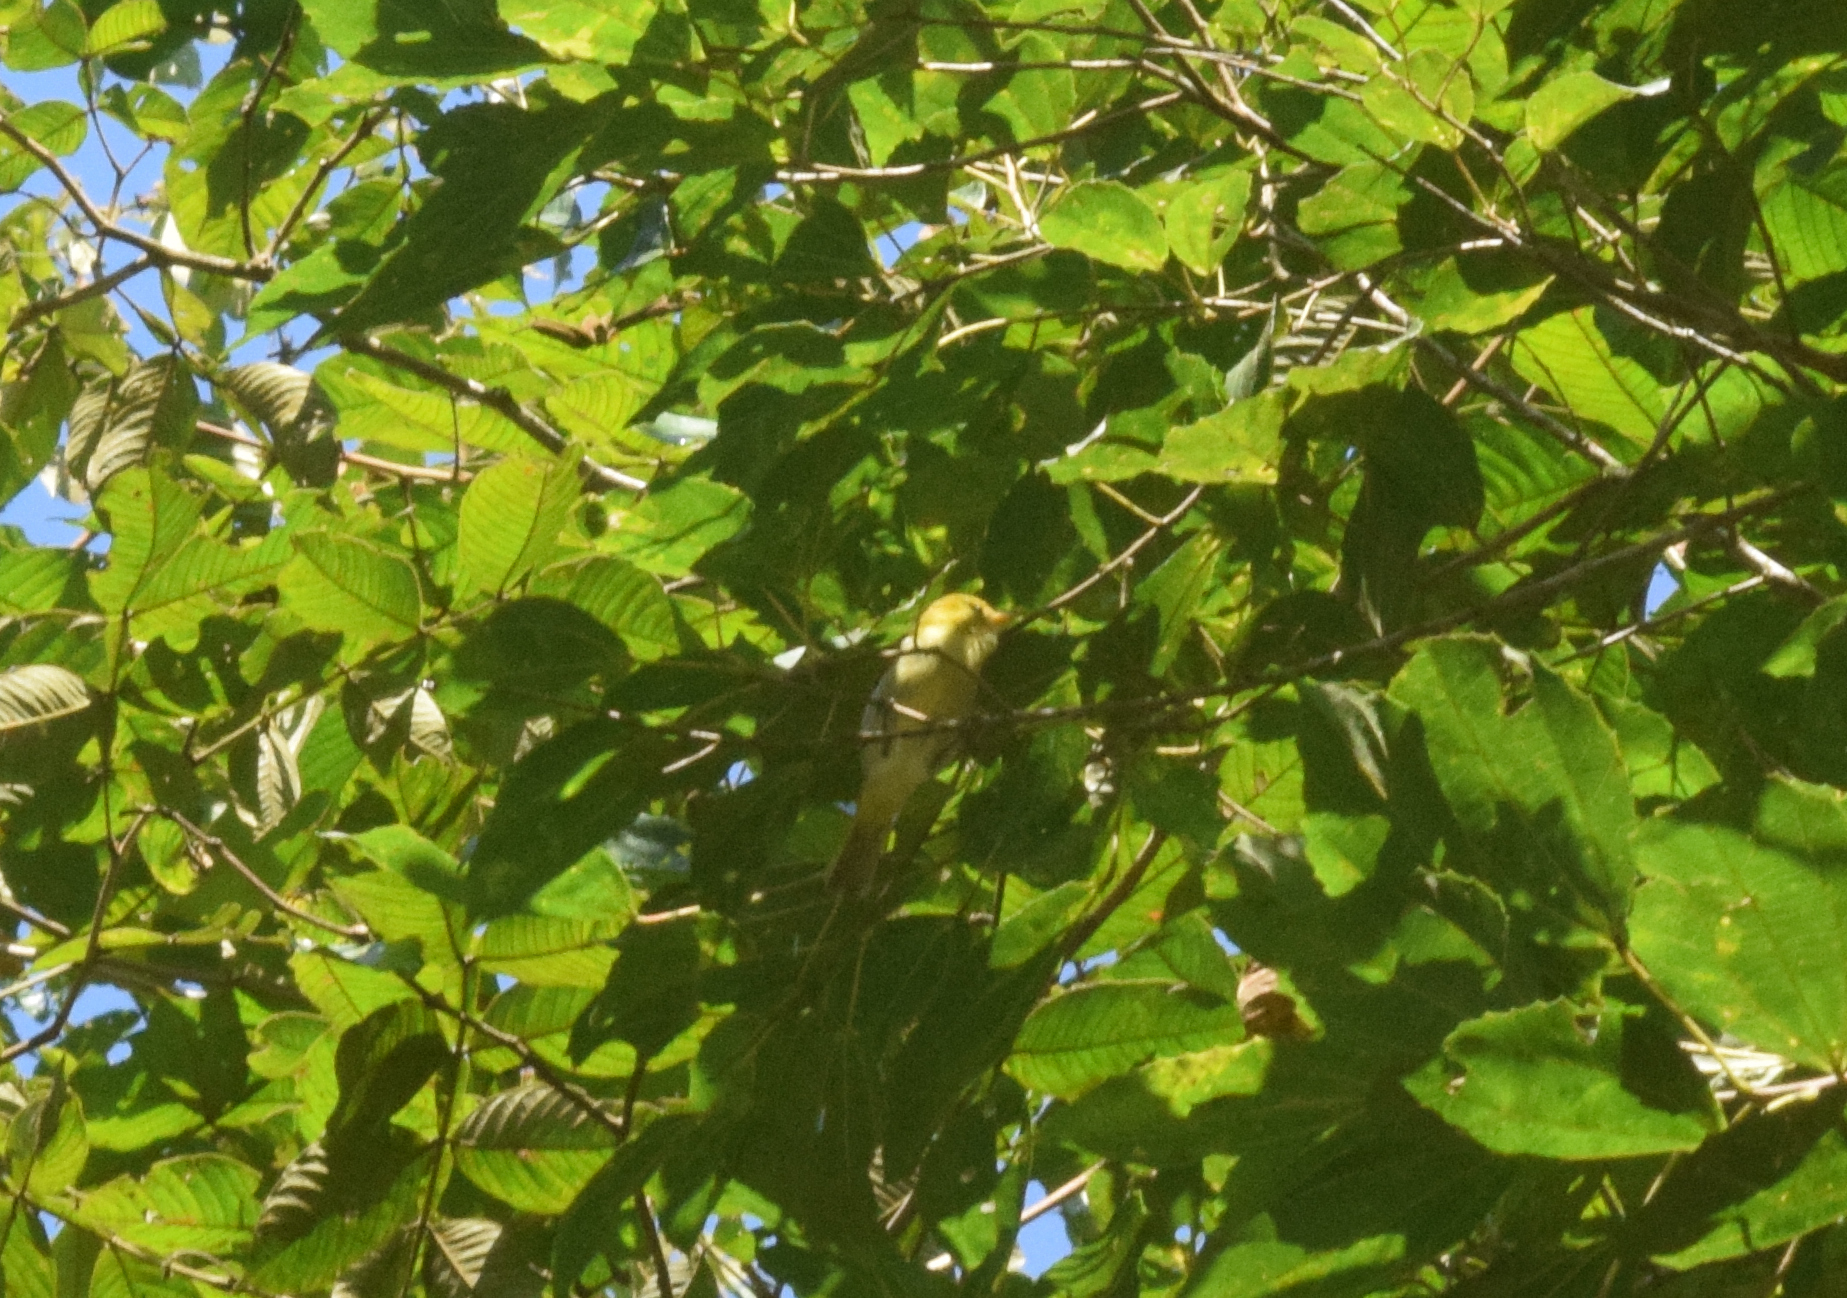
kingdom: Animalia
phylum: Chordata
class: Aves
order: Passeriformes
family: Thraupidae
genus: Hemithraupis
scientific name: Hemithraupis guira
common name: Guira tanager
